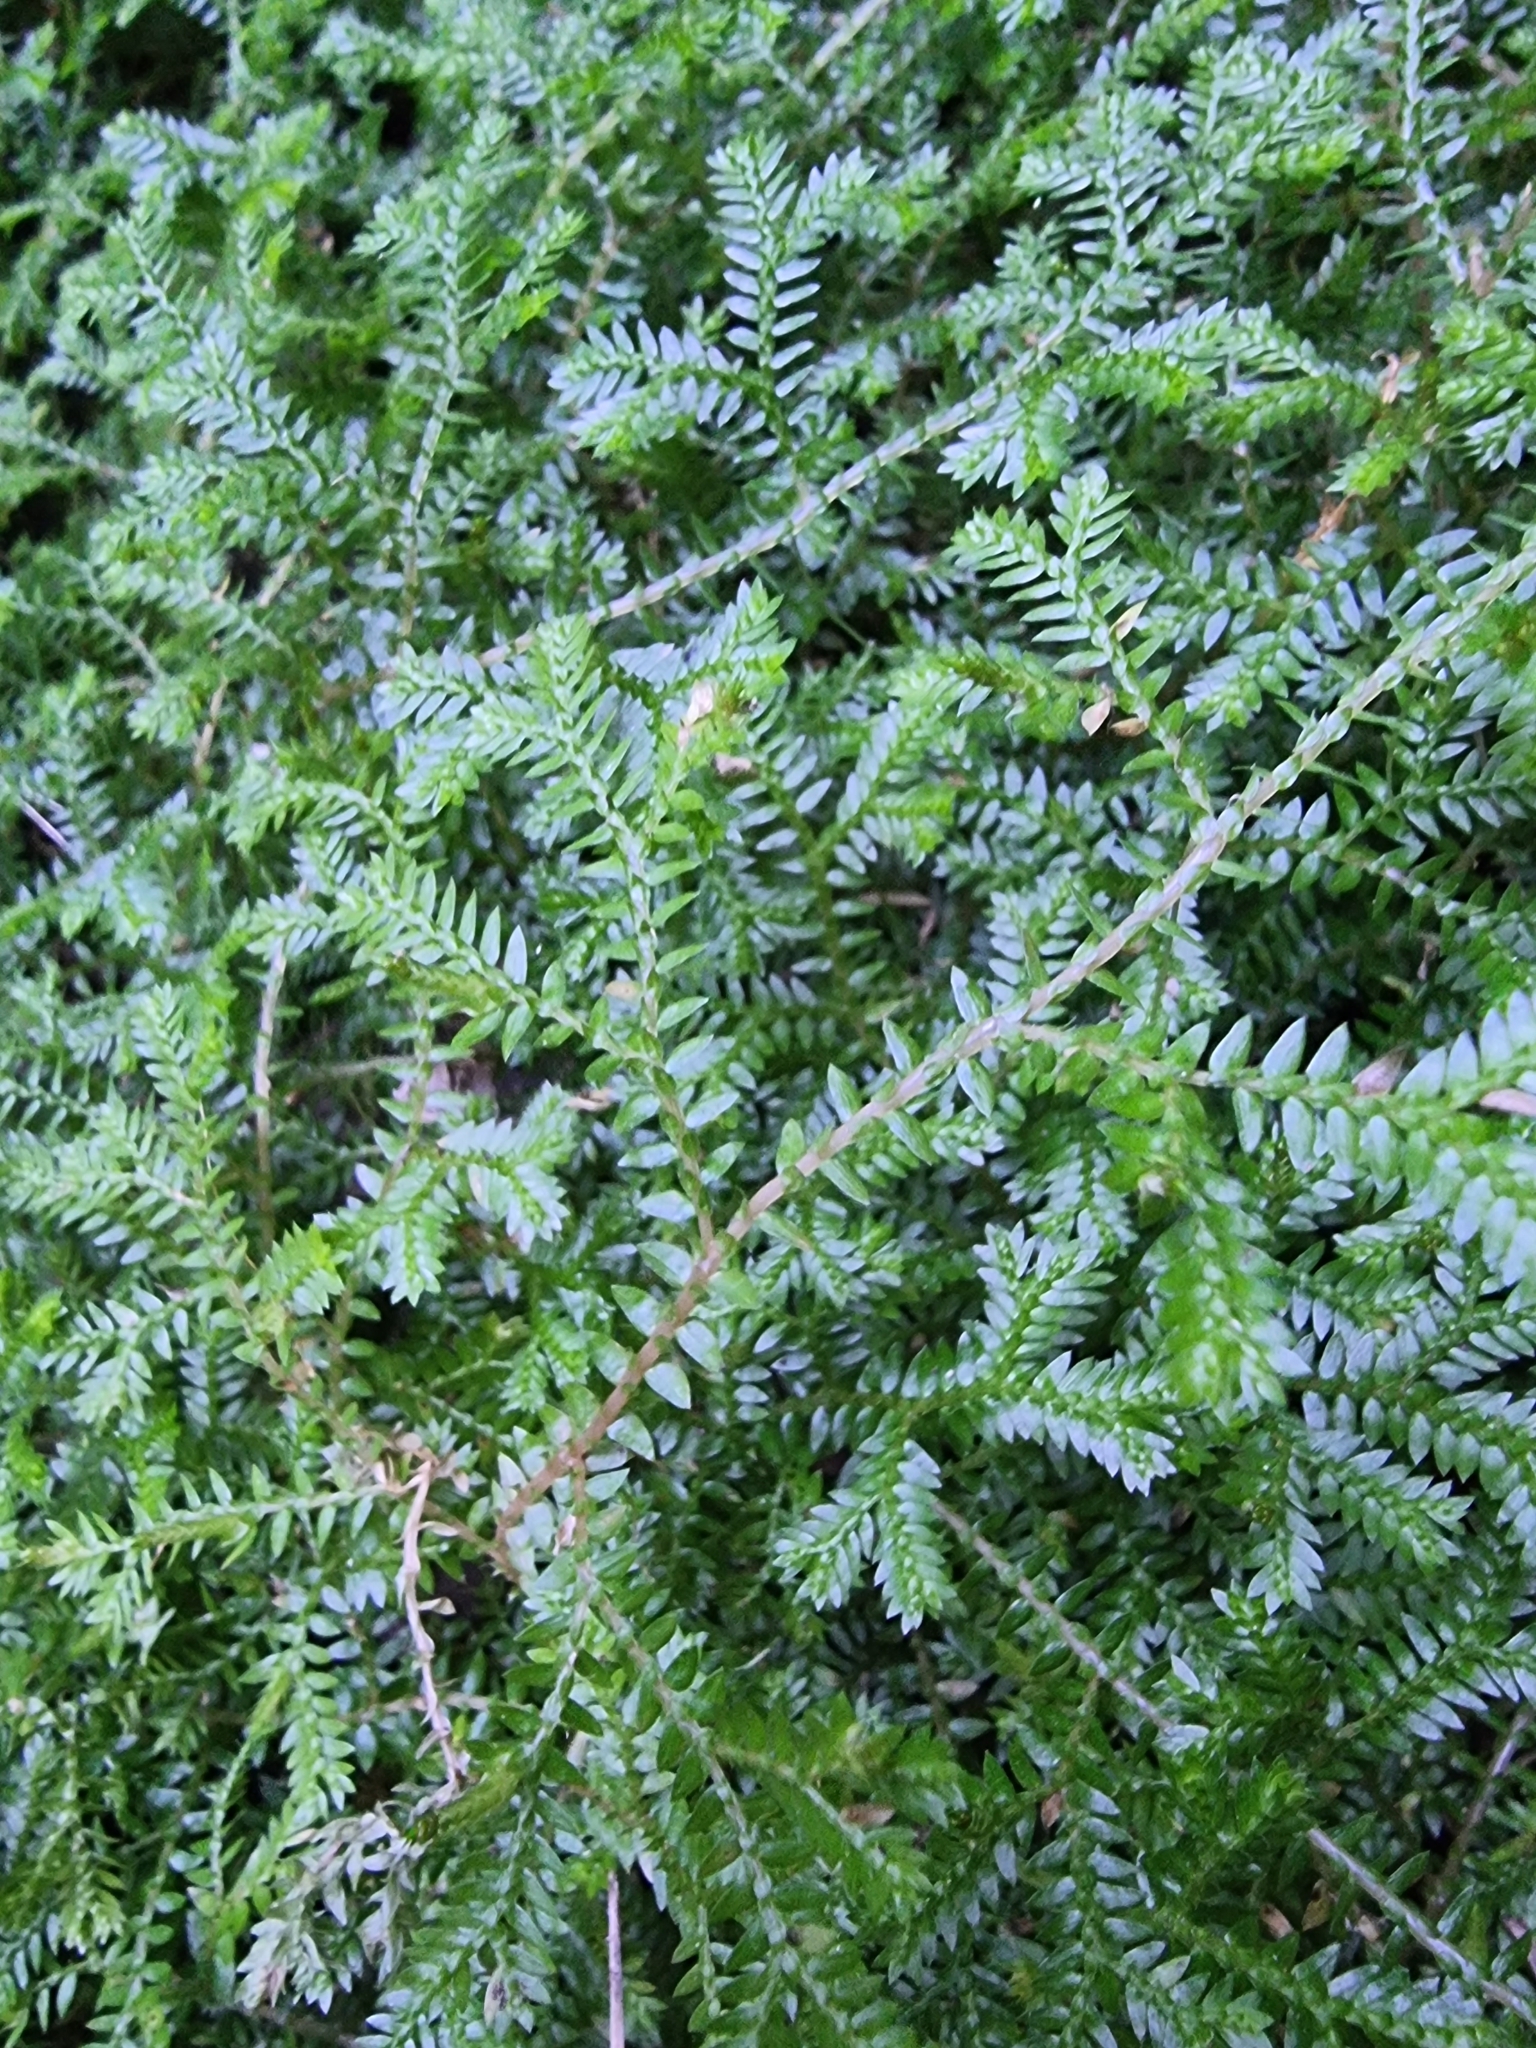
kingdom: Plantae
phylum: Tracheophyta
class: Lycopodiopsida
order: Selaginellales
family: Selaginellaceae
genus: Selaginella
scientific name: Selaginella kraussiana
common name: Krauss' spikemoss
